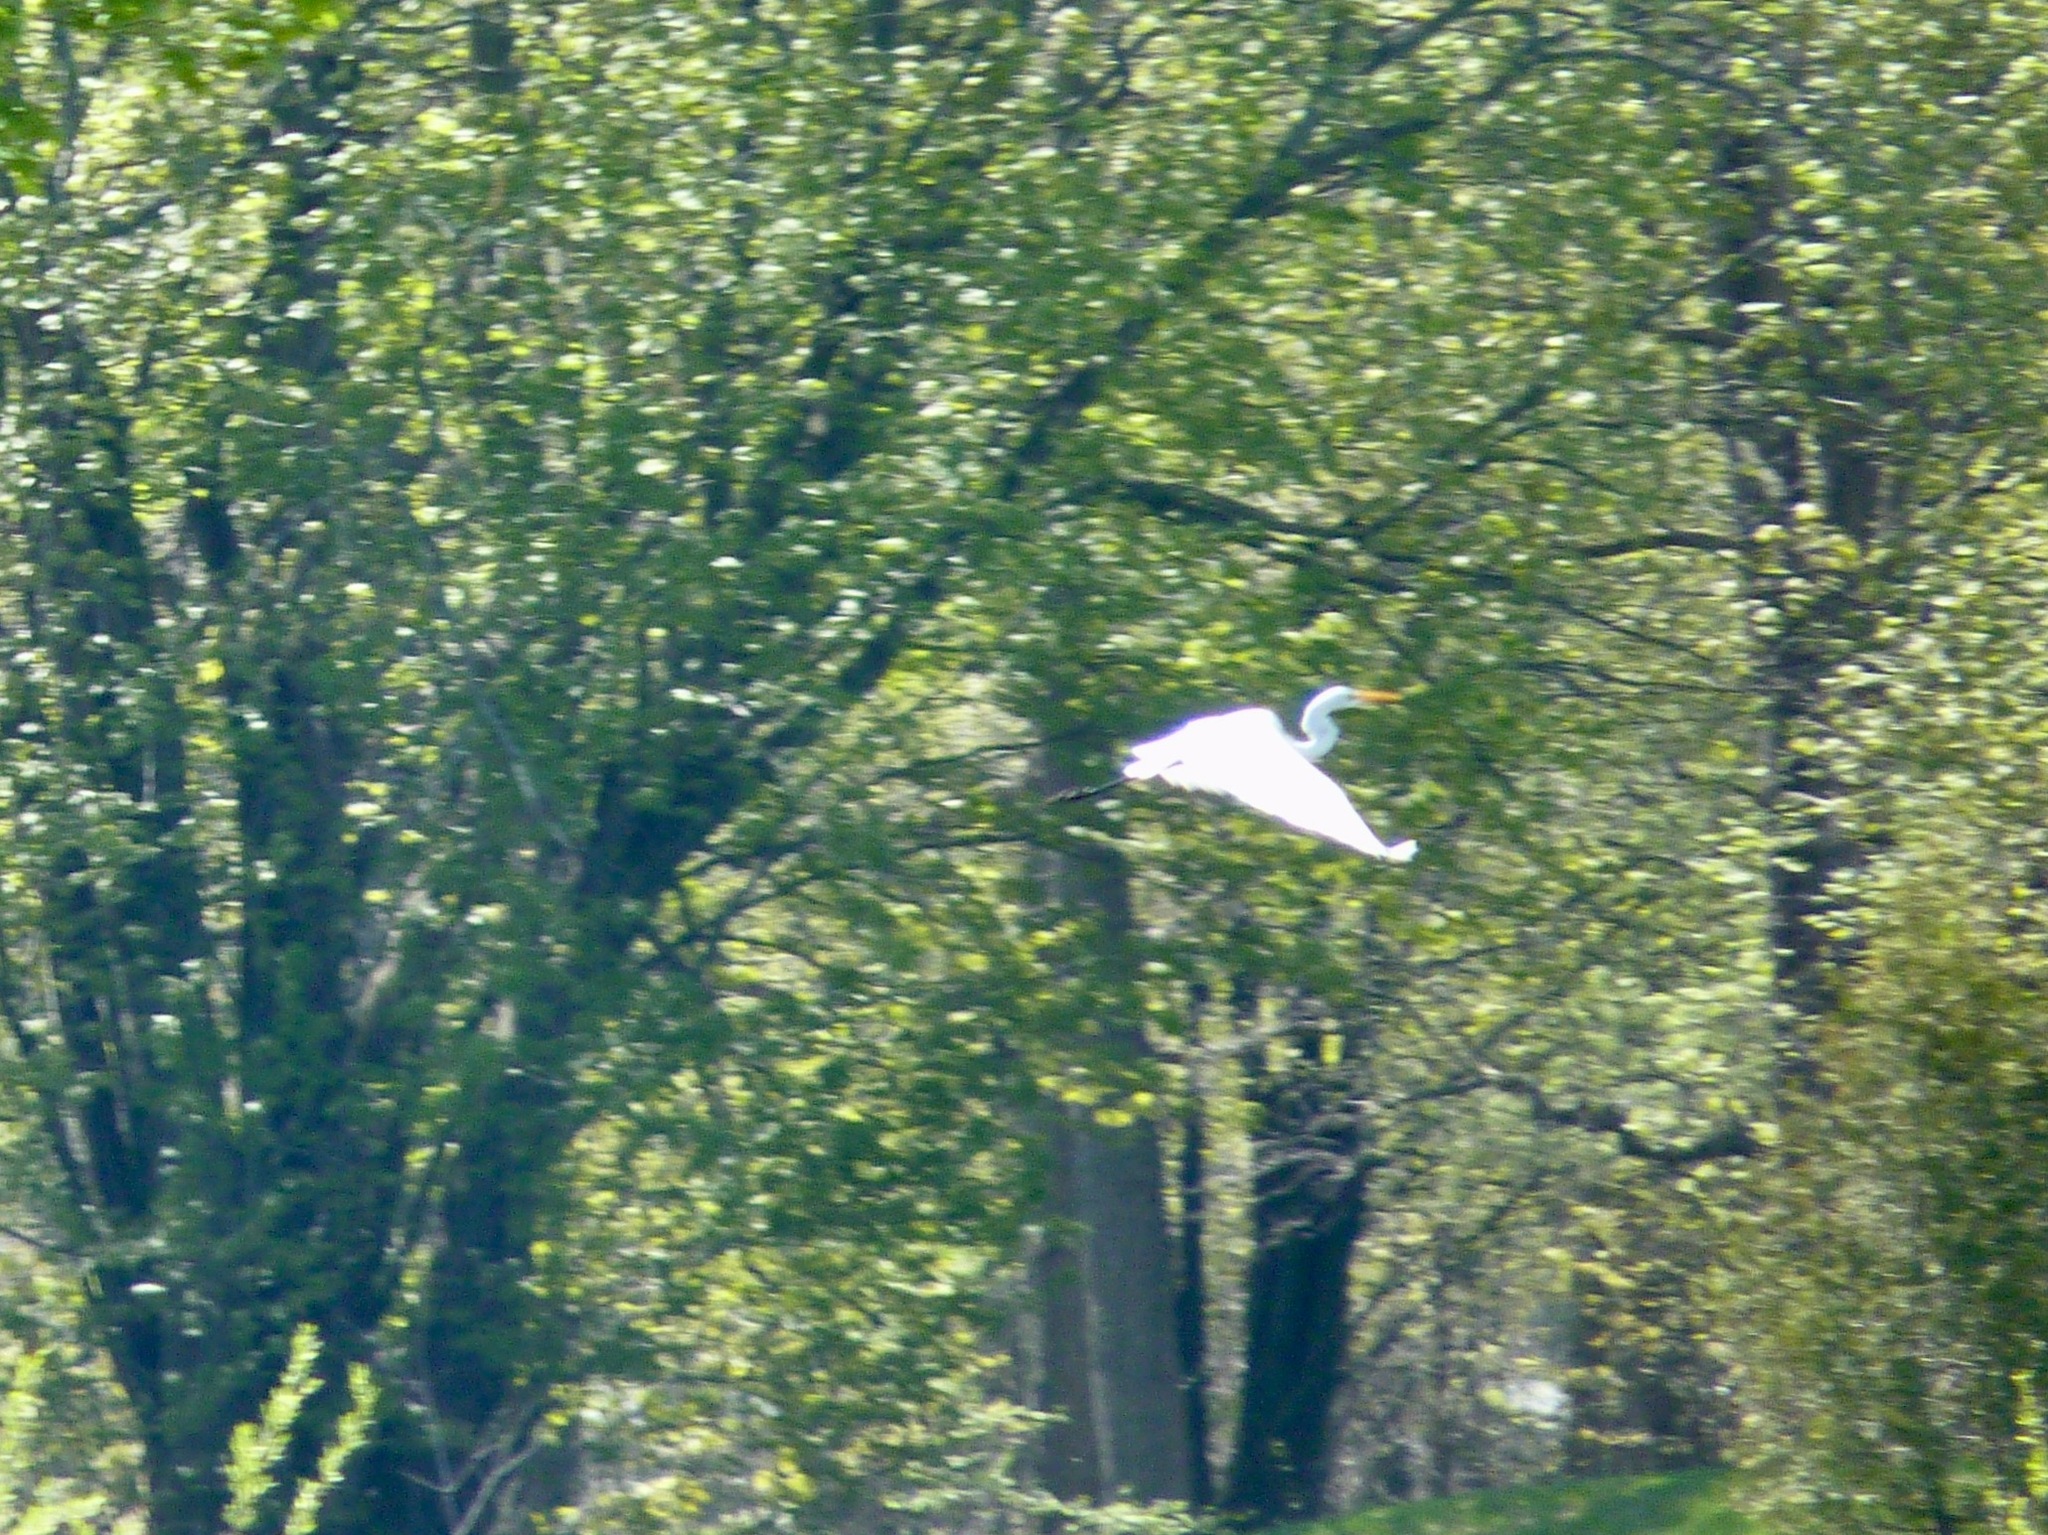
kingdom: Animalia
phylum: Chordata
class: Aves
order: Pelecaniformes
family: Ardeidae
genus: Ardea
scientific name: Ardea alba
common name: Great egret
